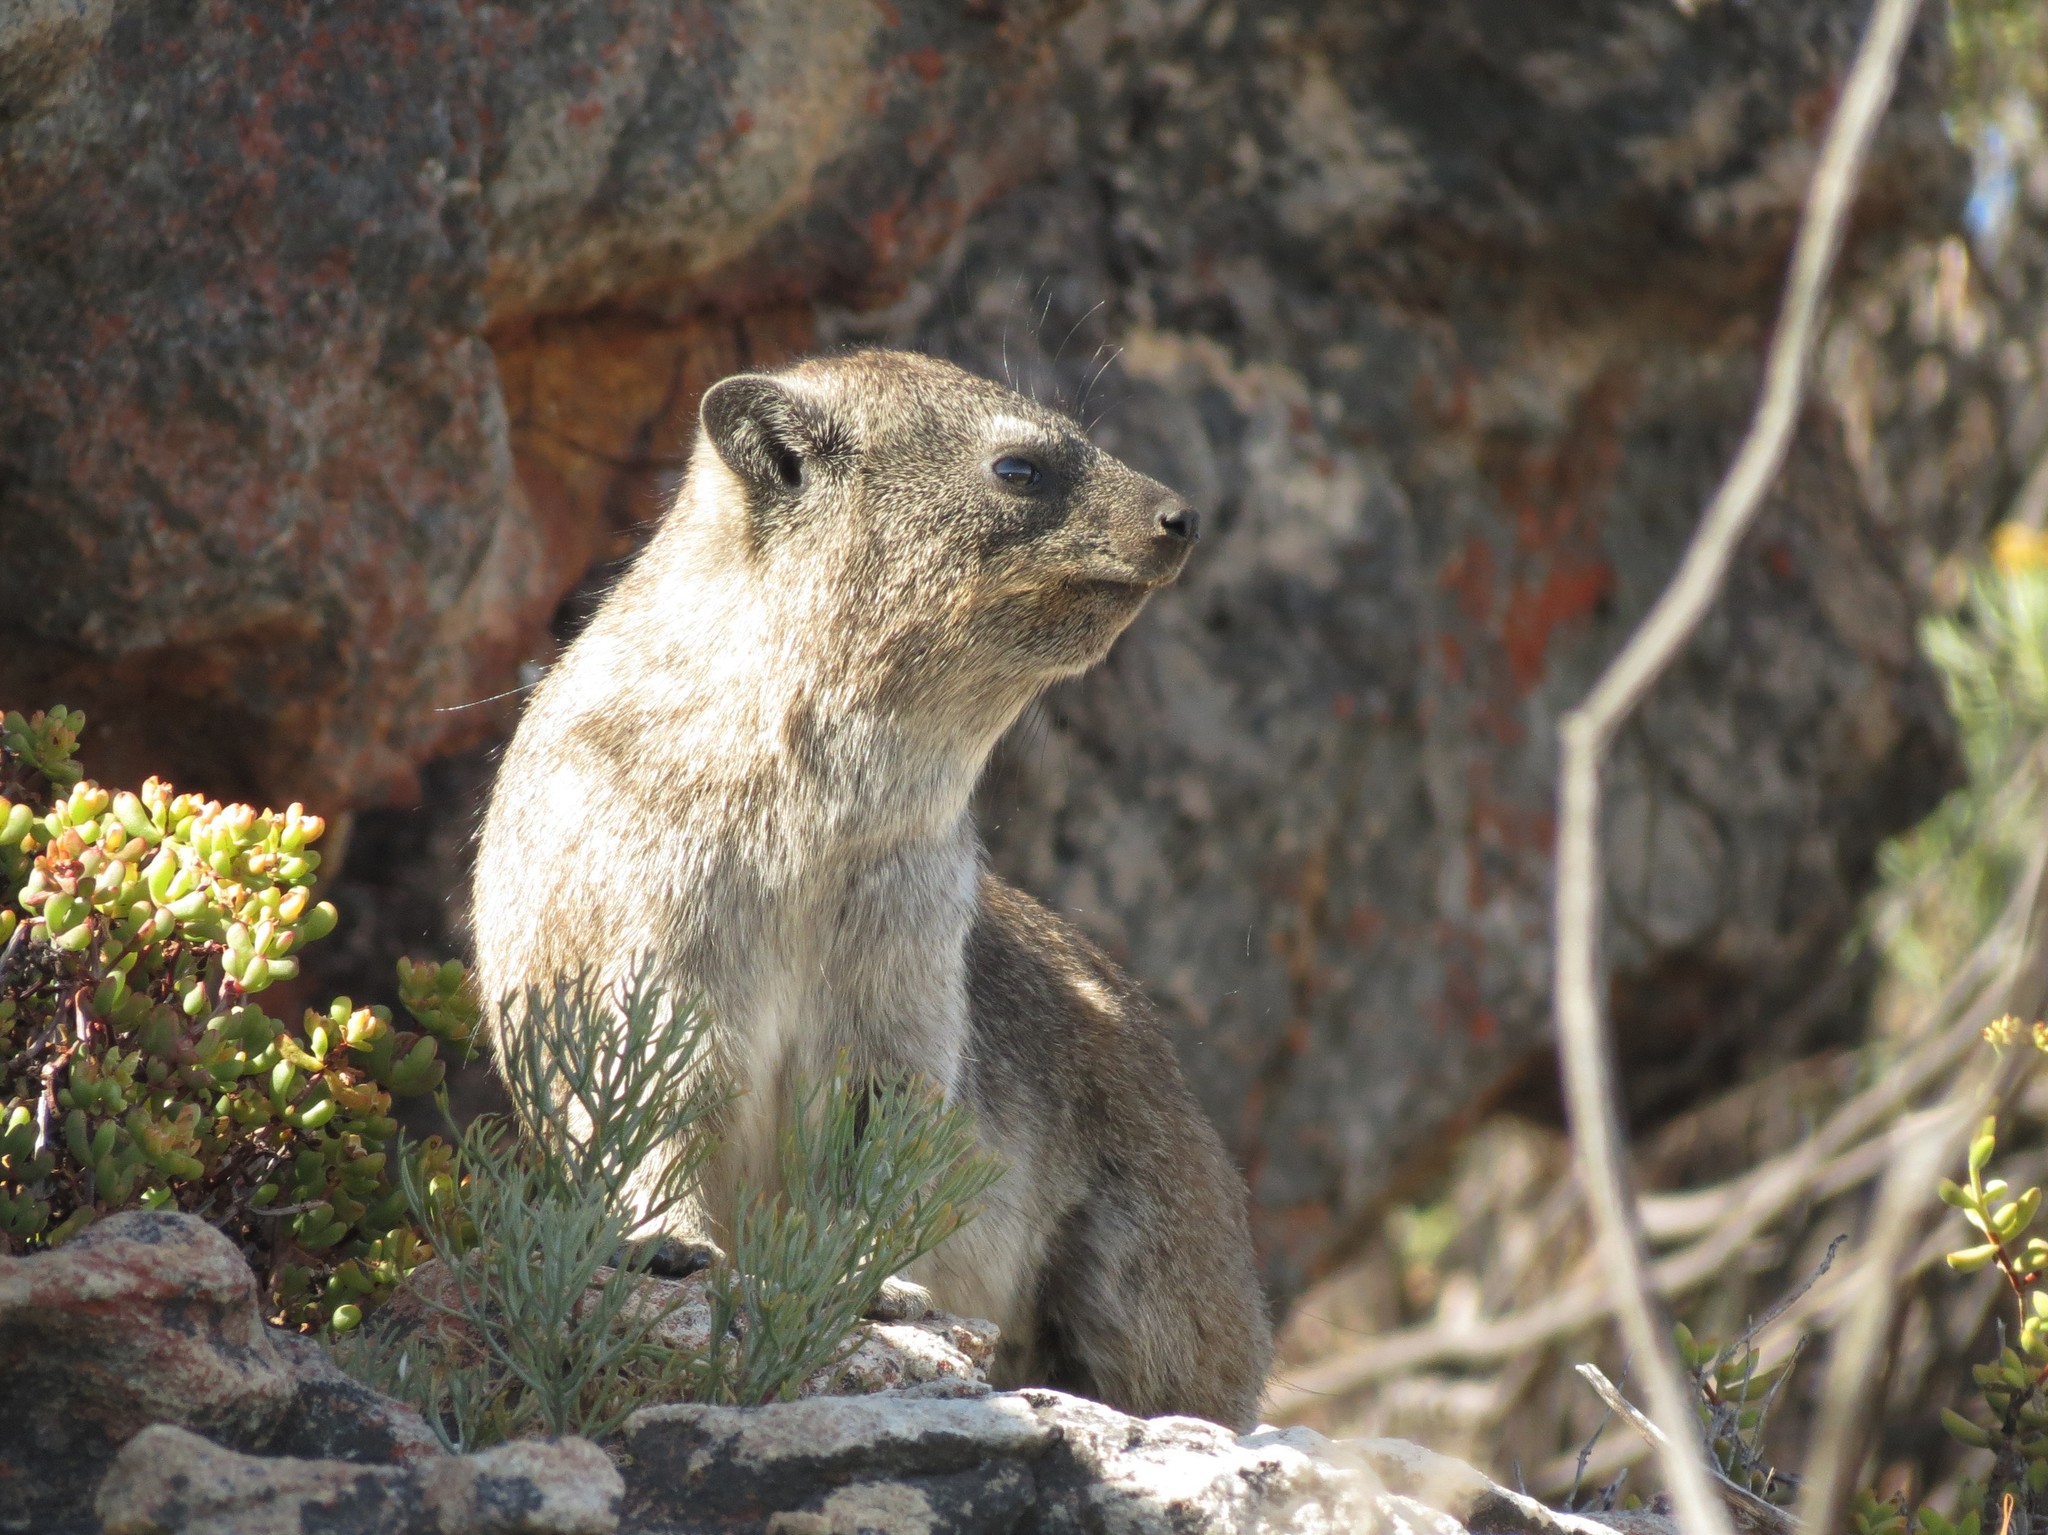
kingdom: Animalia
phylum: Chordata
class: Mammalia
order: Hyracoidea
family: Procaviidae
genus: Procavia
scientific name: Procavia capensis
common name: Rock hyrax
